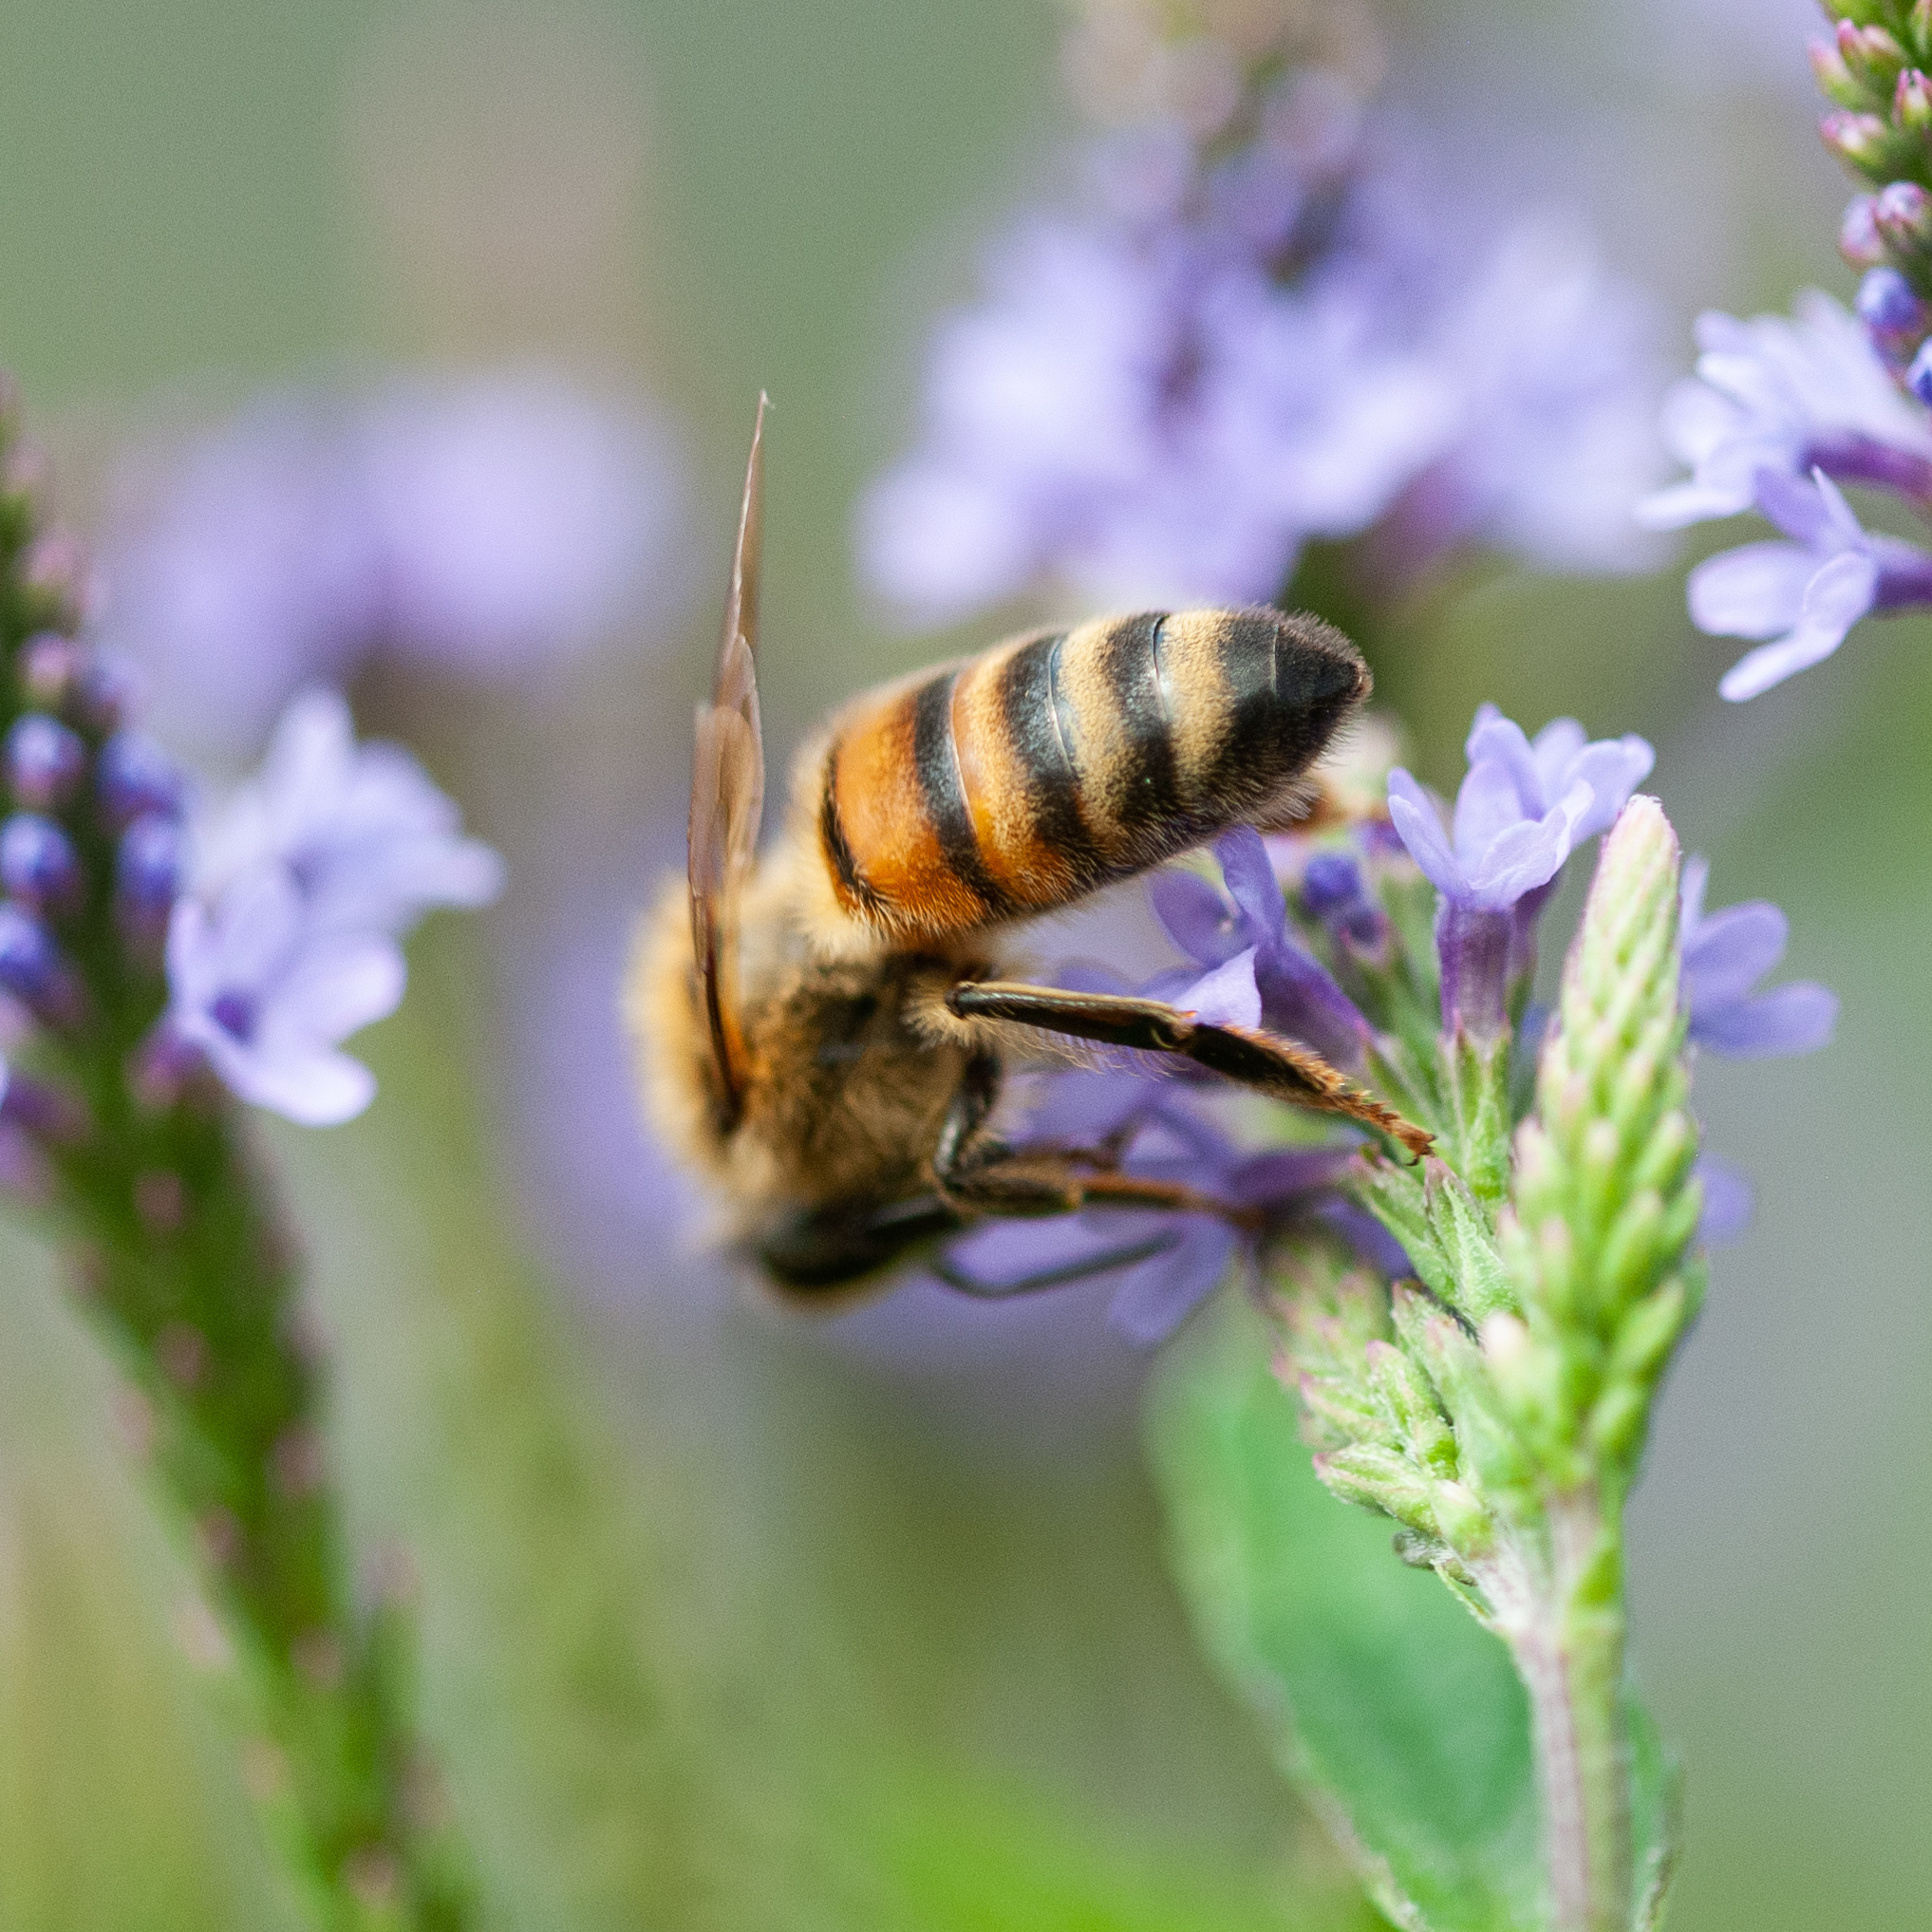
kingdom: Animalia
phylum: Arthropoda
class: Insecta
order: Hymenoptera
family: Apidae
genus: Apis
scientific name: Apis mellifera
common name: Honey bee
